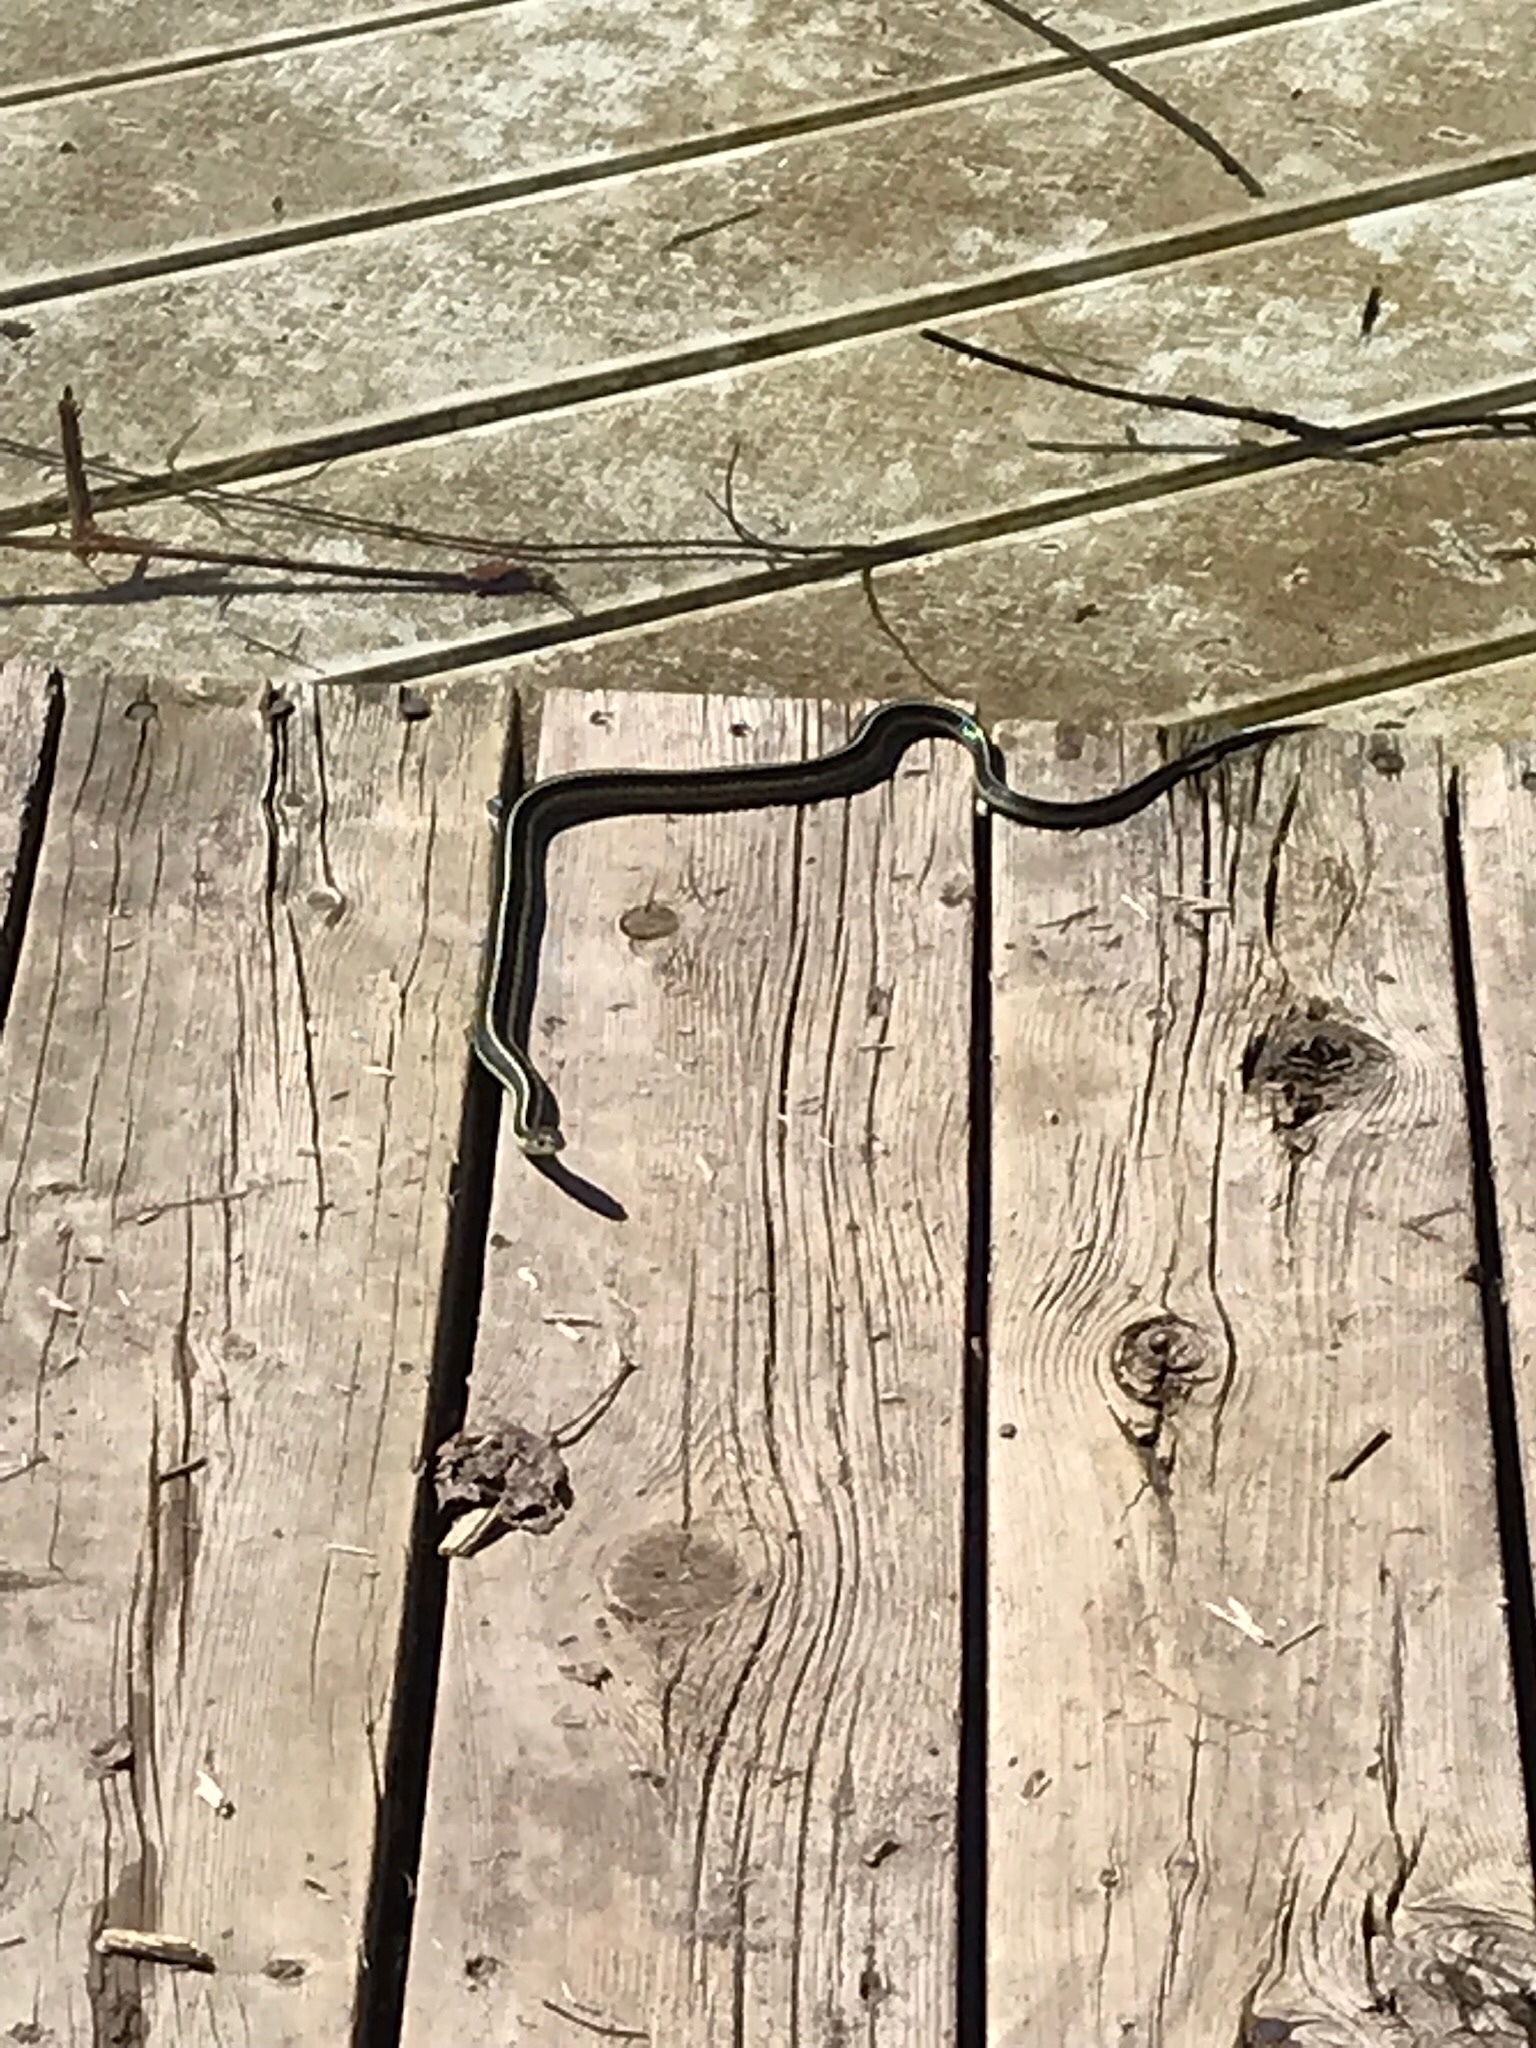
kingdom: Animalia
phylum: Chordata
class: Squamata
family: Colubridae
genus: Thamnophis
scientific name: Thamnophis sirtalis
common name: Common garter snake
